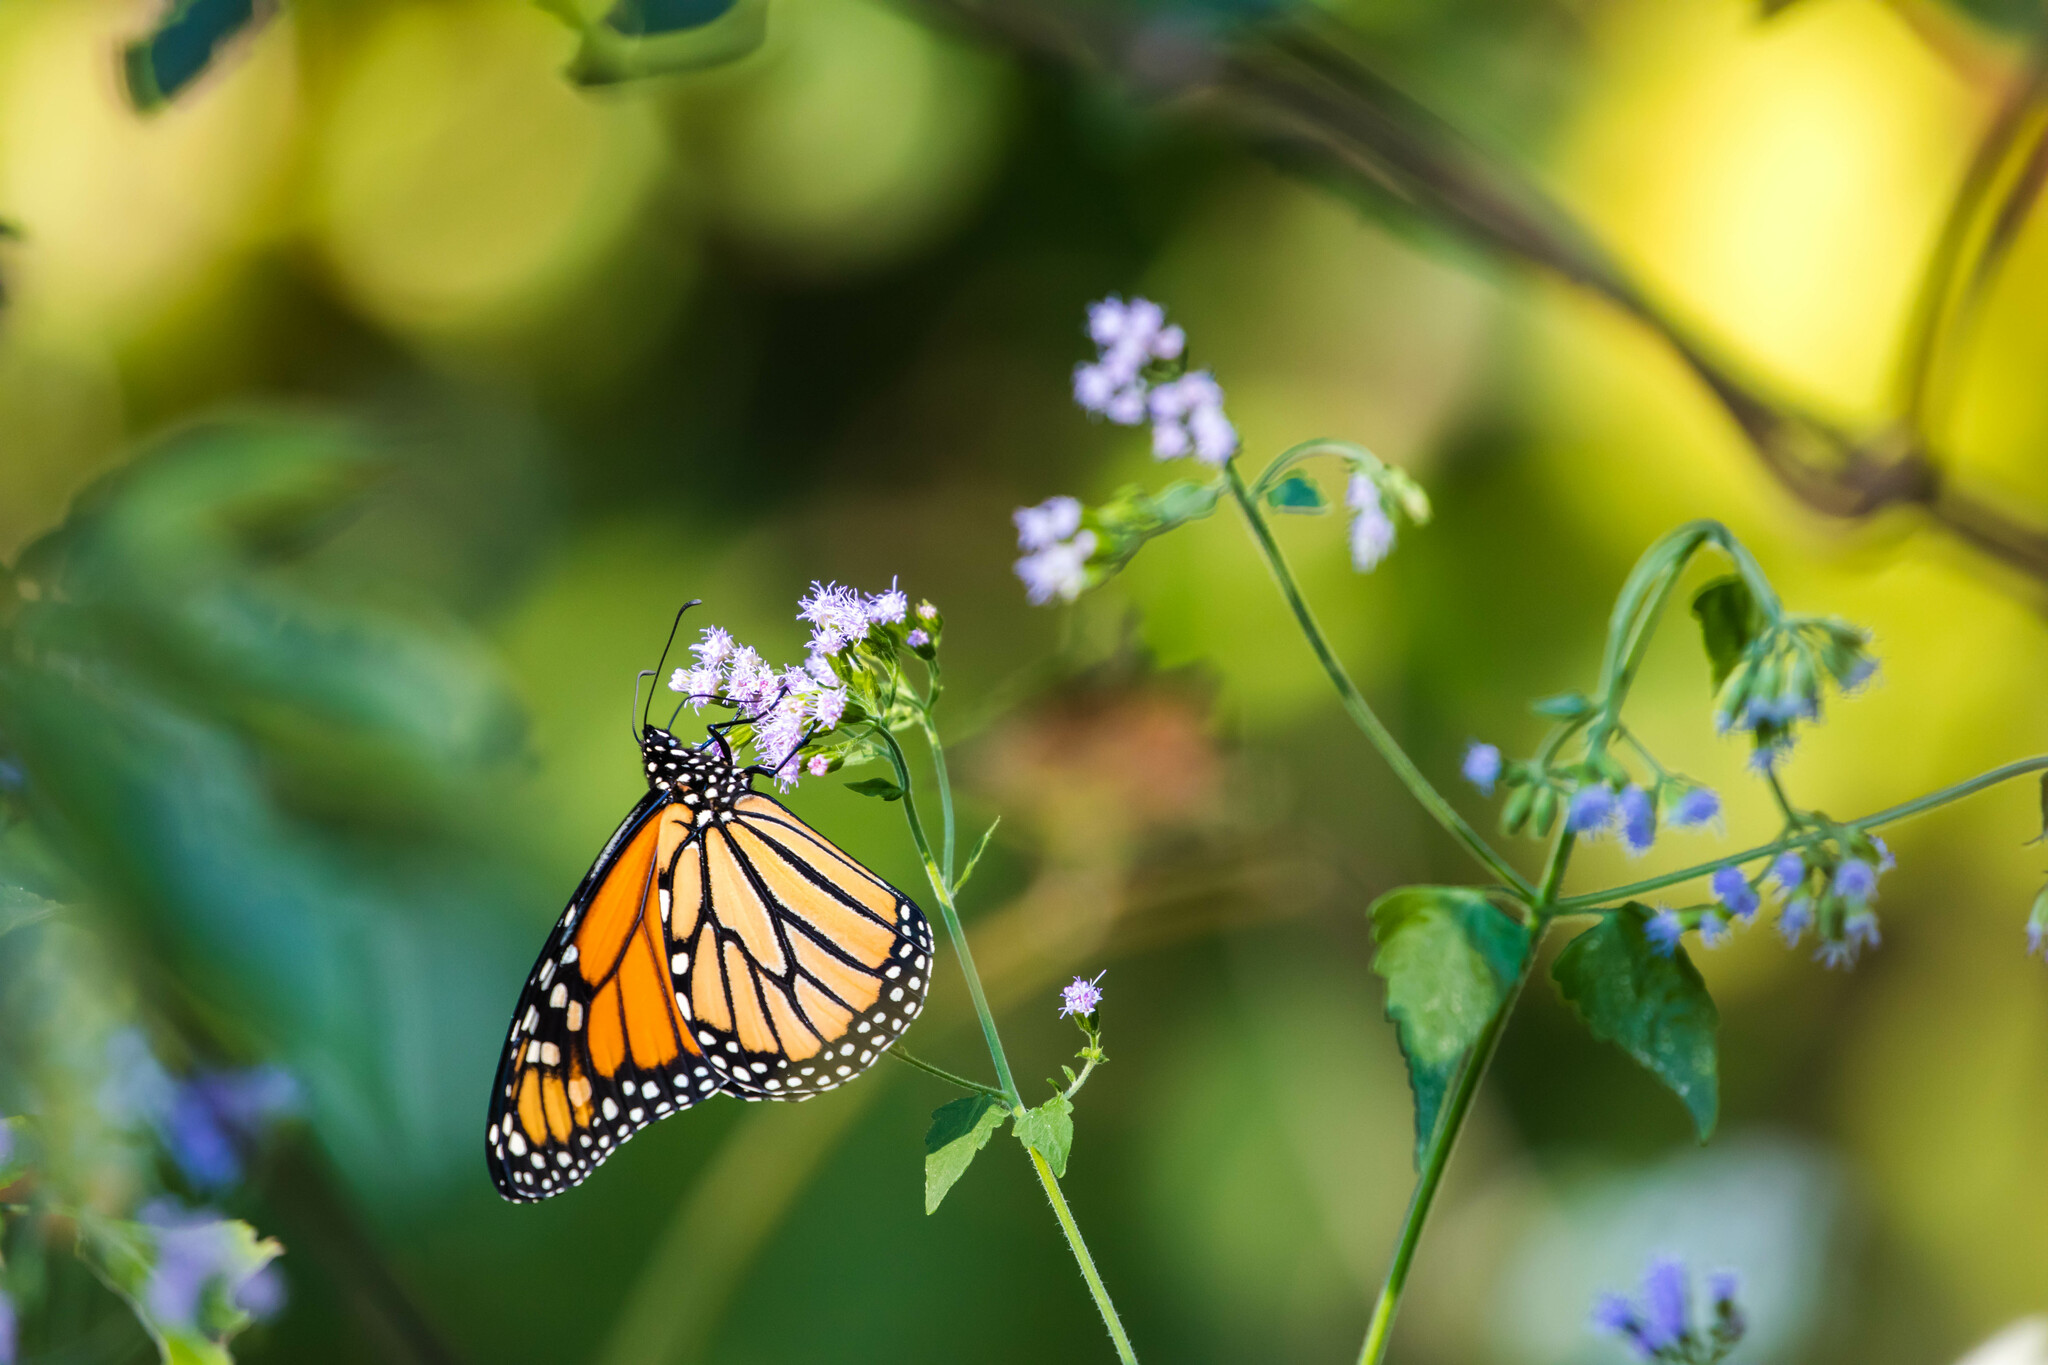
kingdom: Animalia
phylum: Arthropoda
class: Insecta
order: Lepidoptera
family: Nymphalidae
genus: Danaus
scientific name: Danaus plexippus
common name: Monarch
